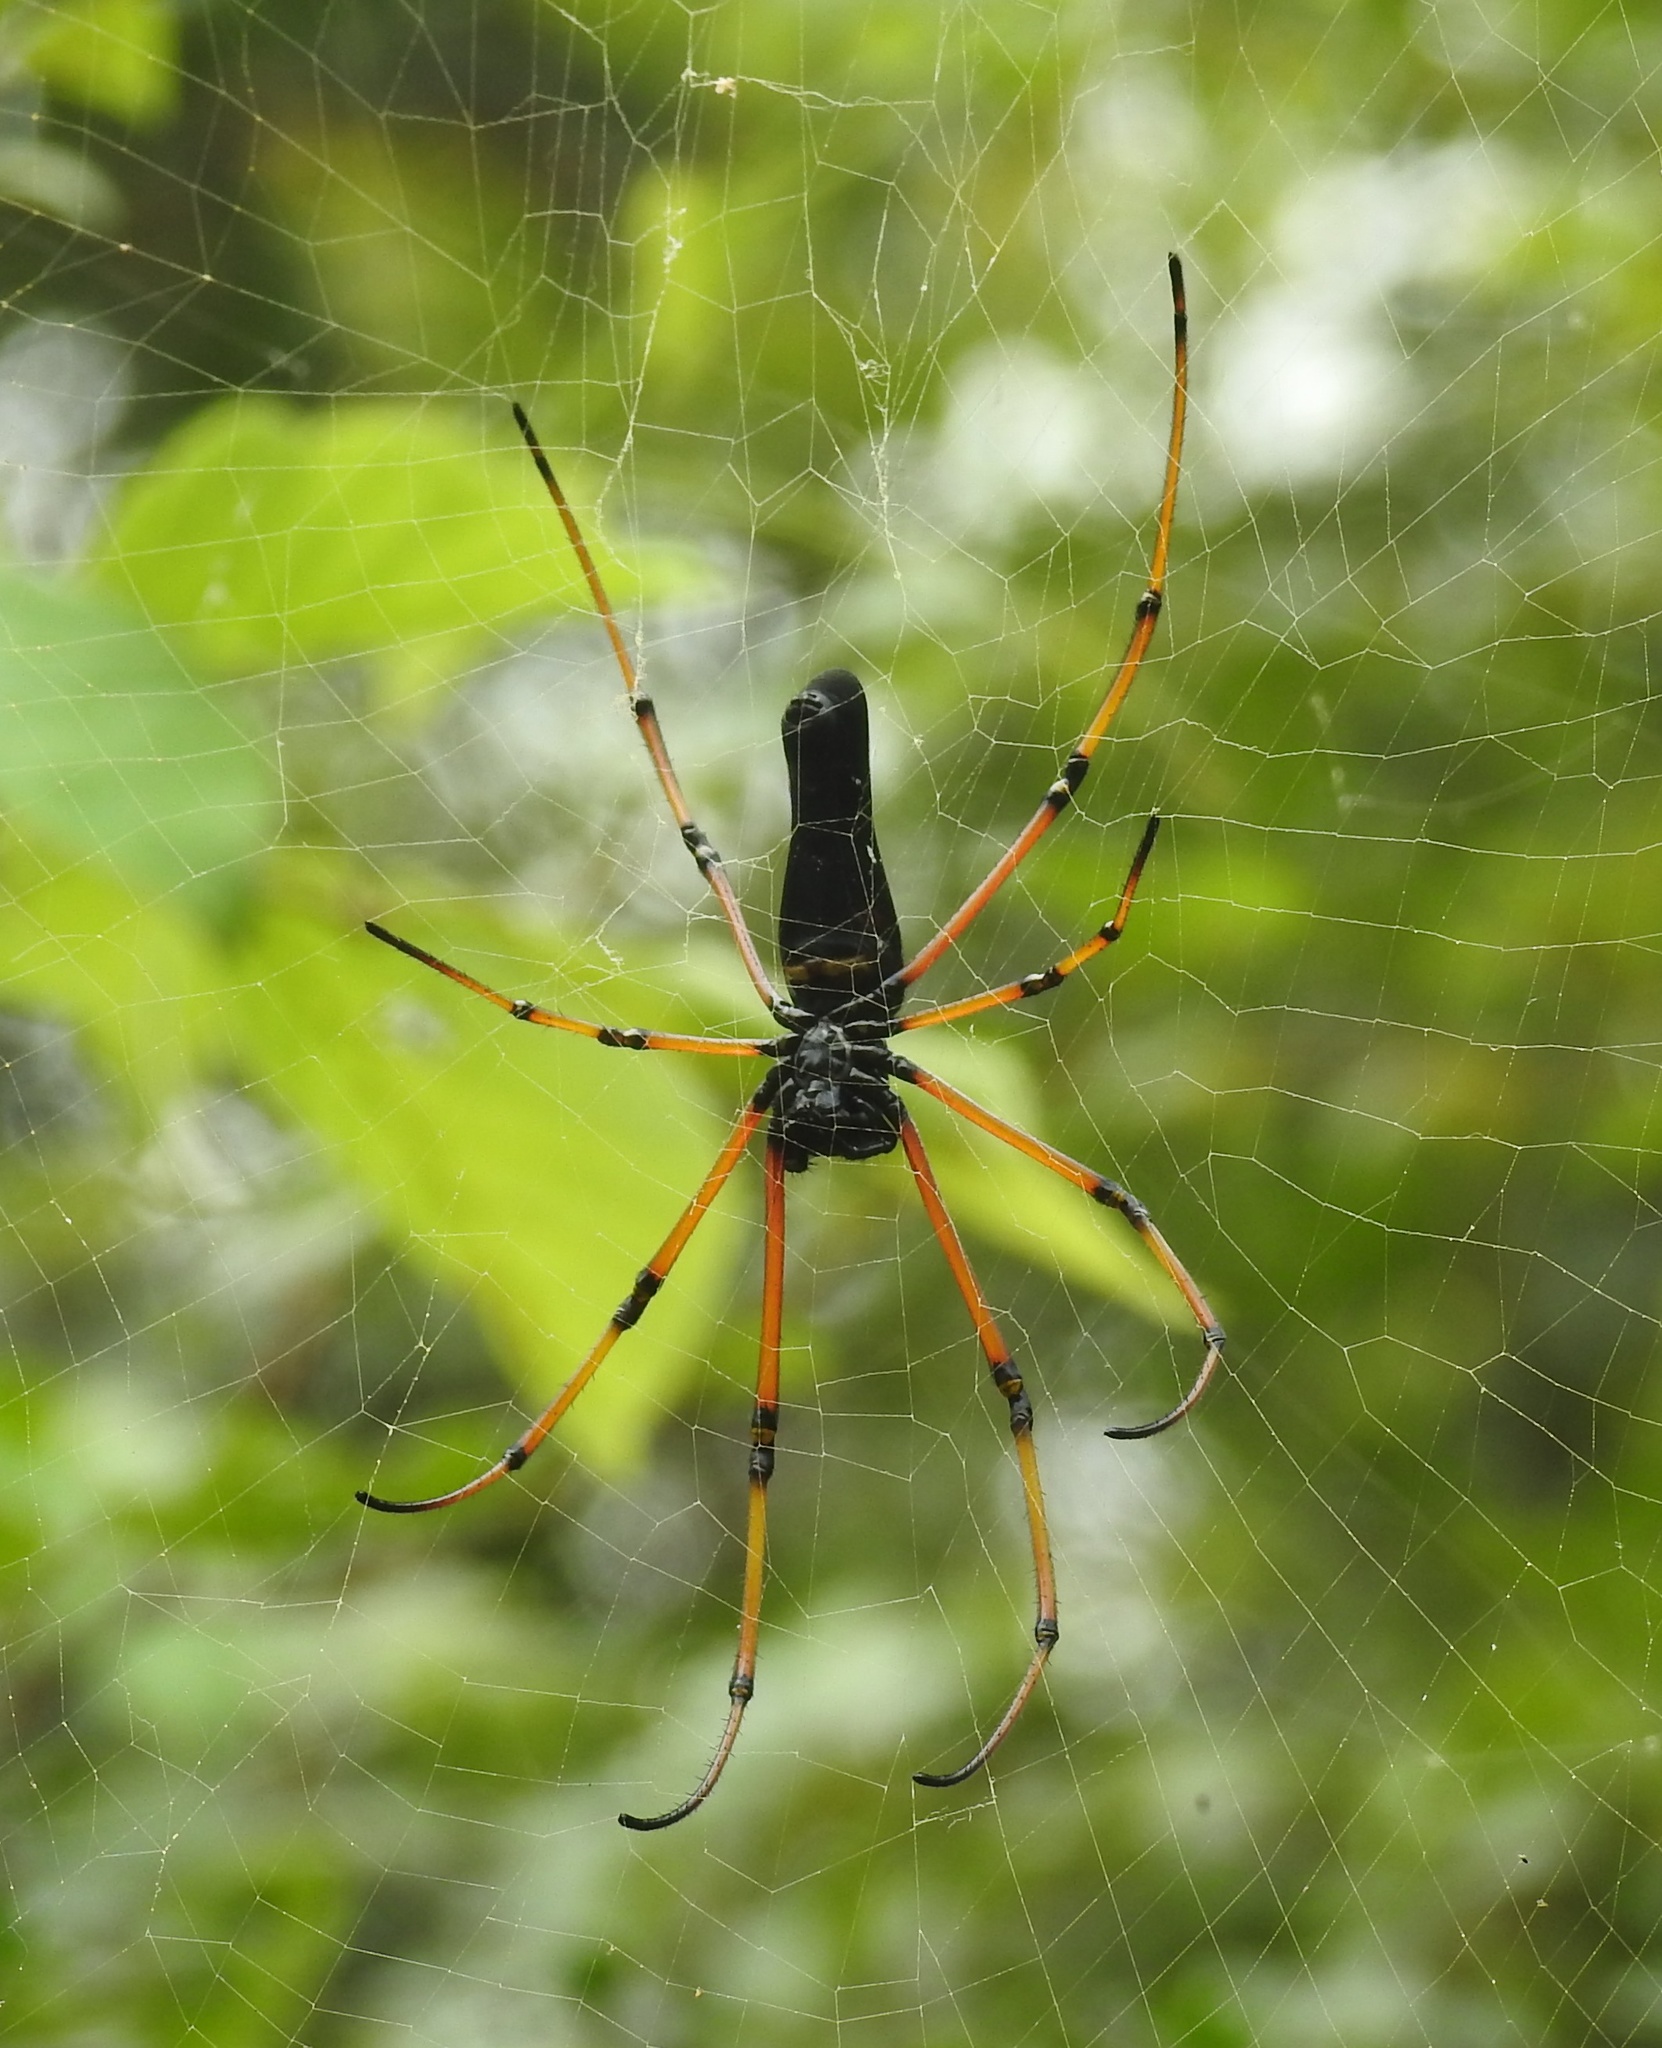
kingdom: Animalia
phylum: Arthropoda
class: Arachnida
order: Araneae
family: Araneidae
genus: Nephila
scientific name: Nephila kuhli
